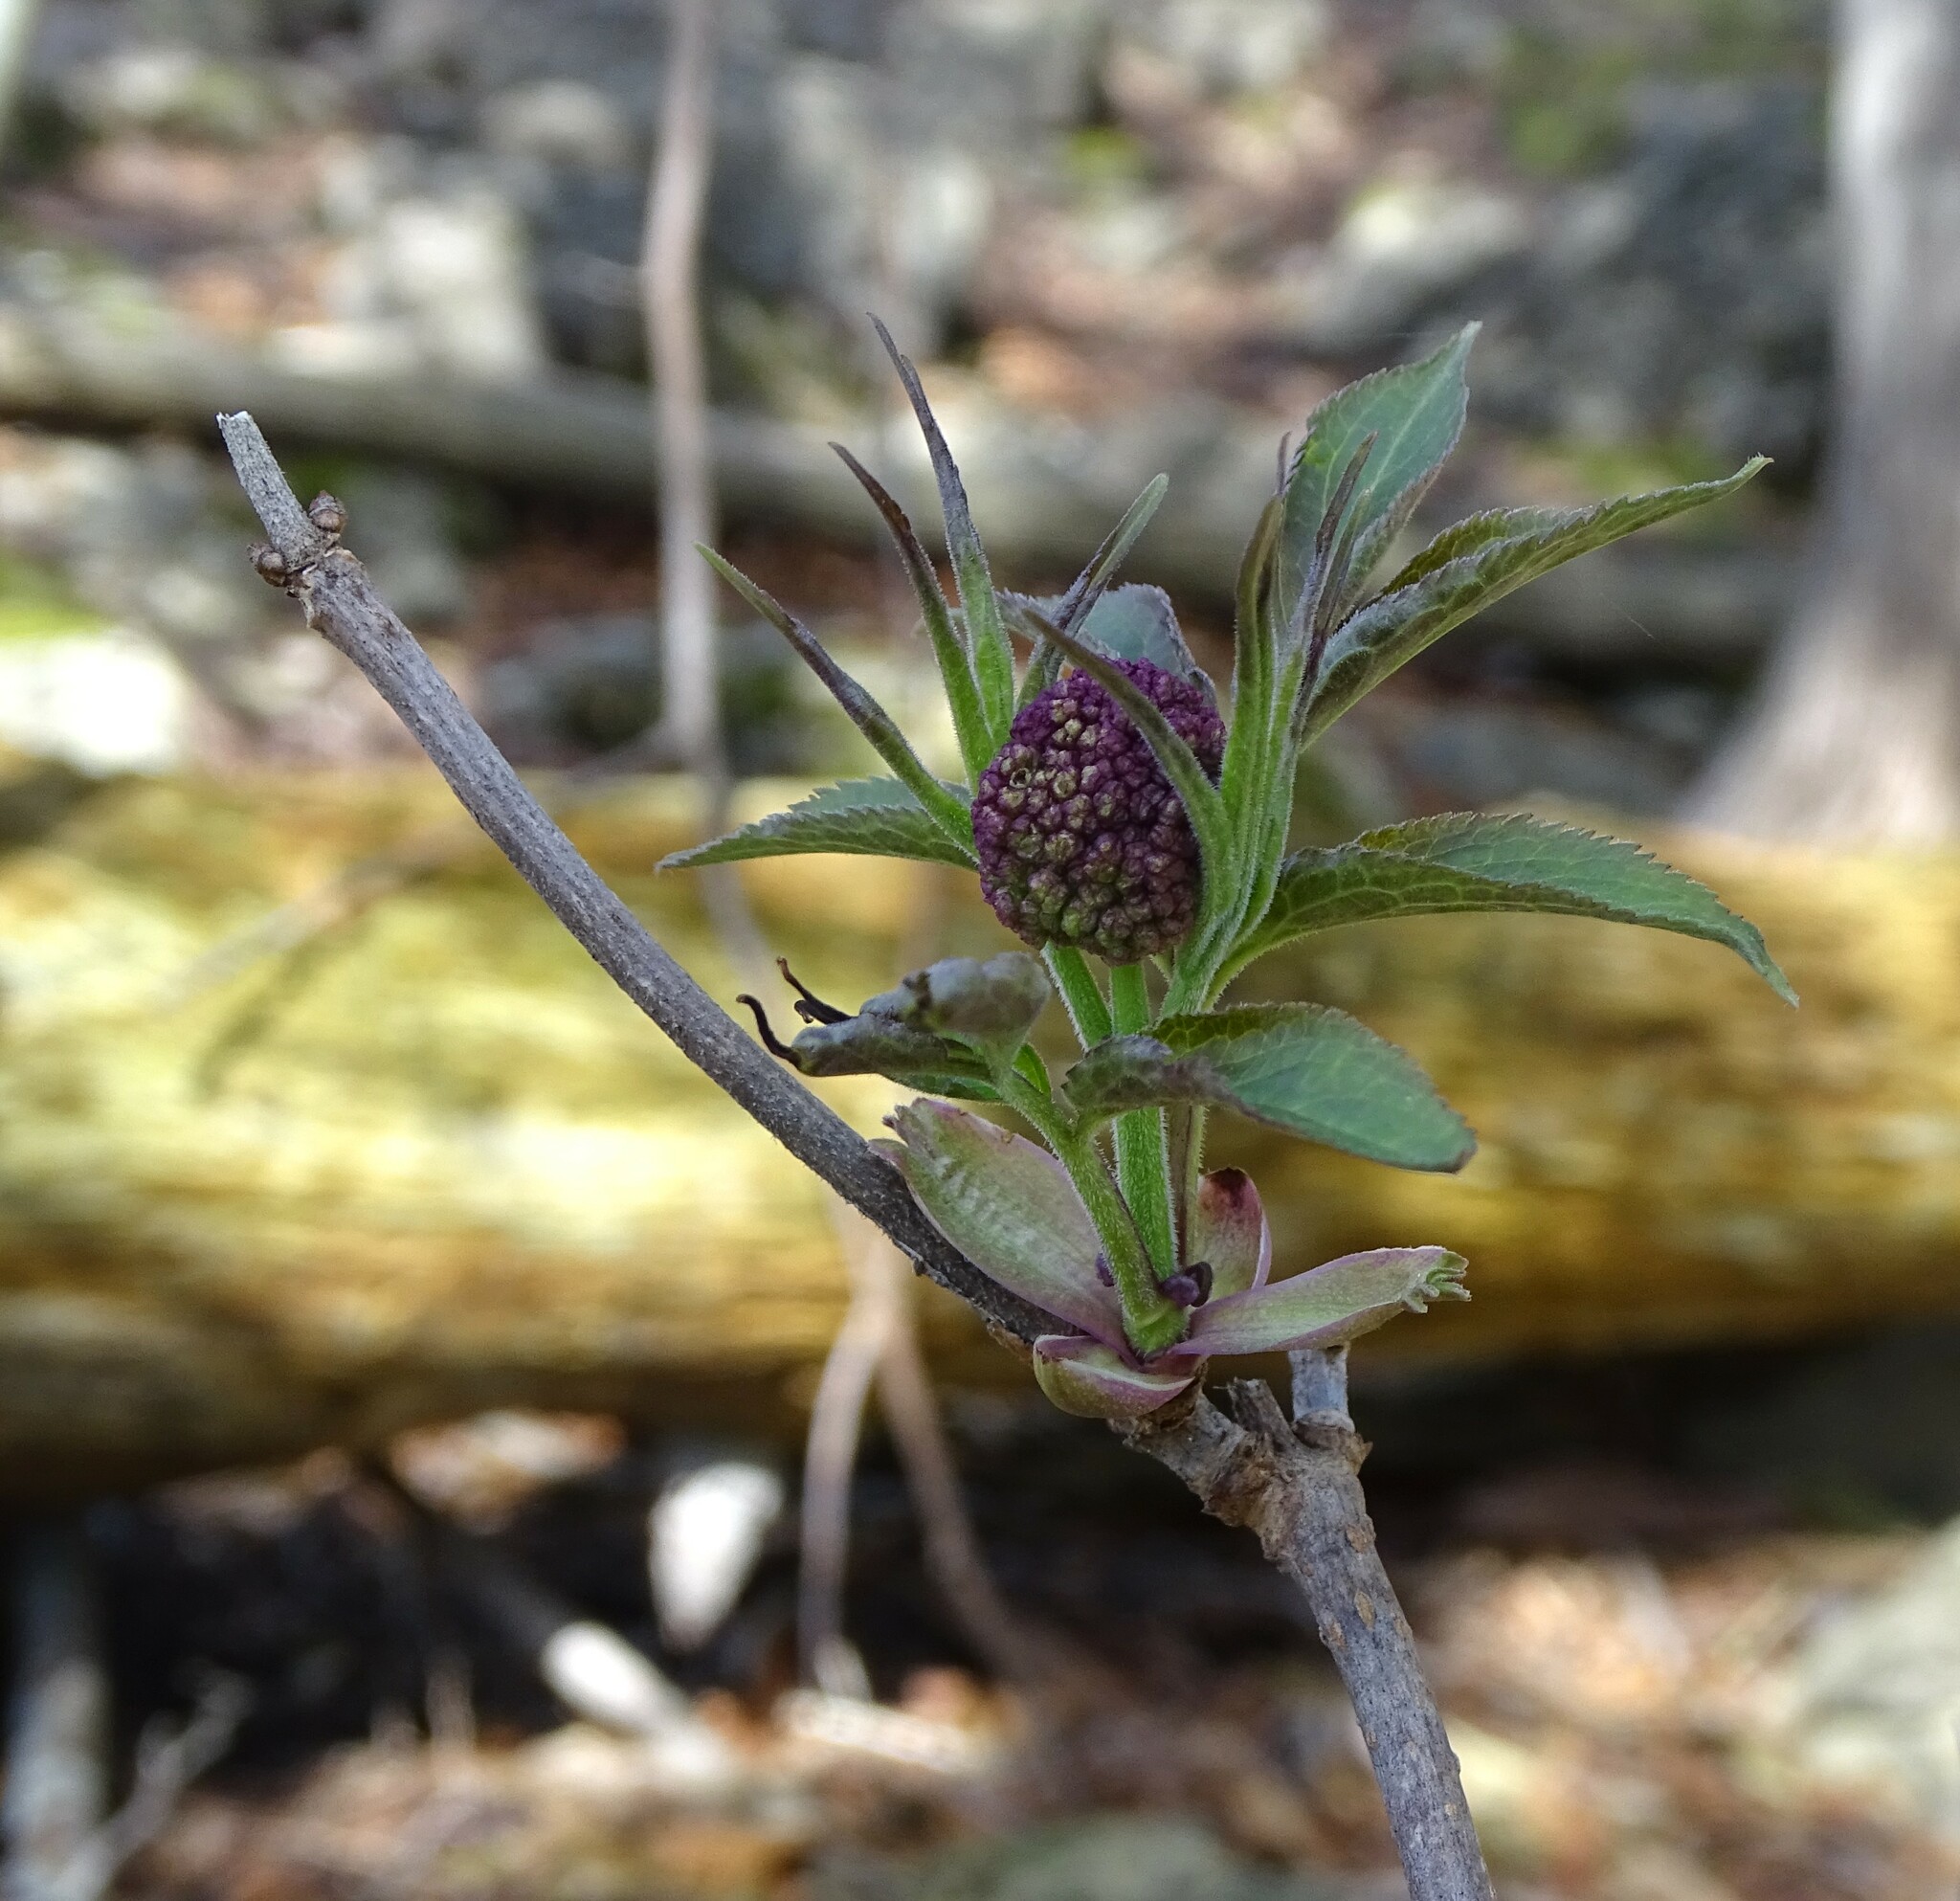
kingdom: Plantae
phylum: Tracheophyta
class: Magnoliopsida
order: Dipsacales
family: Viburnaceae
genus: Sambucus
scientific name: Sambucus racemosa
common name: Red-berried elder
